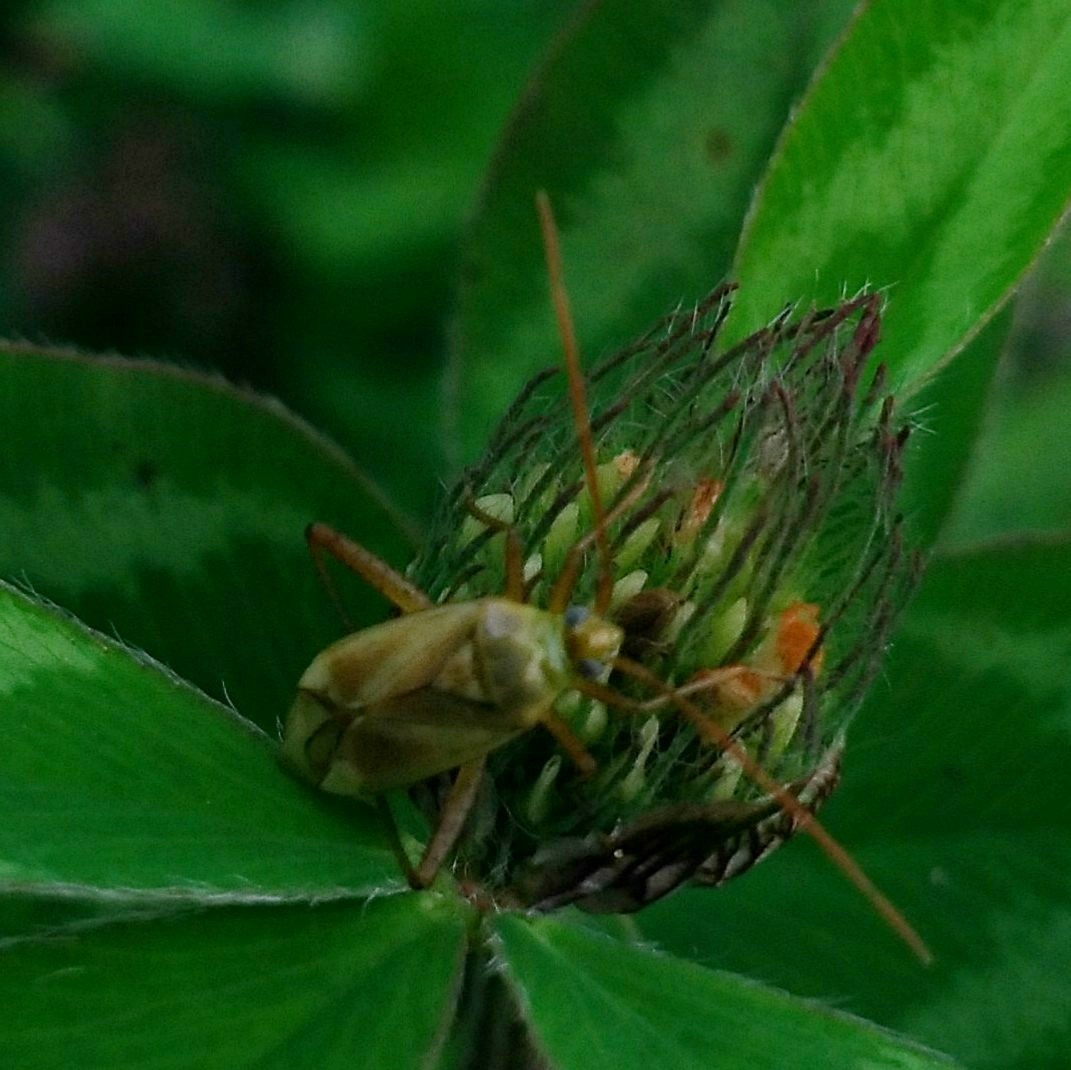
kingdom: Animalia
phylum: Arthropoda
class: Insecta
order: Hemiptera
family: Miridae
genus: Adelphocoris
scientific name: Adelphocoris lineolatus
